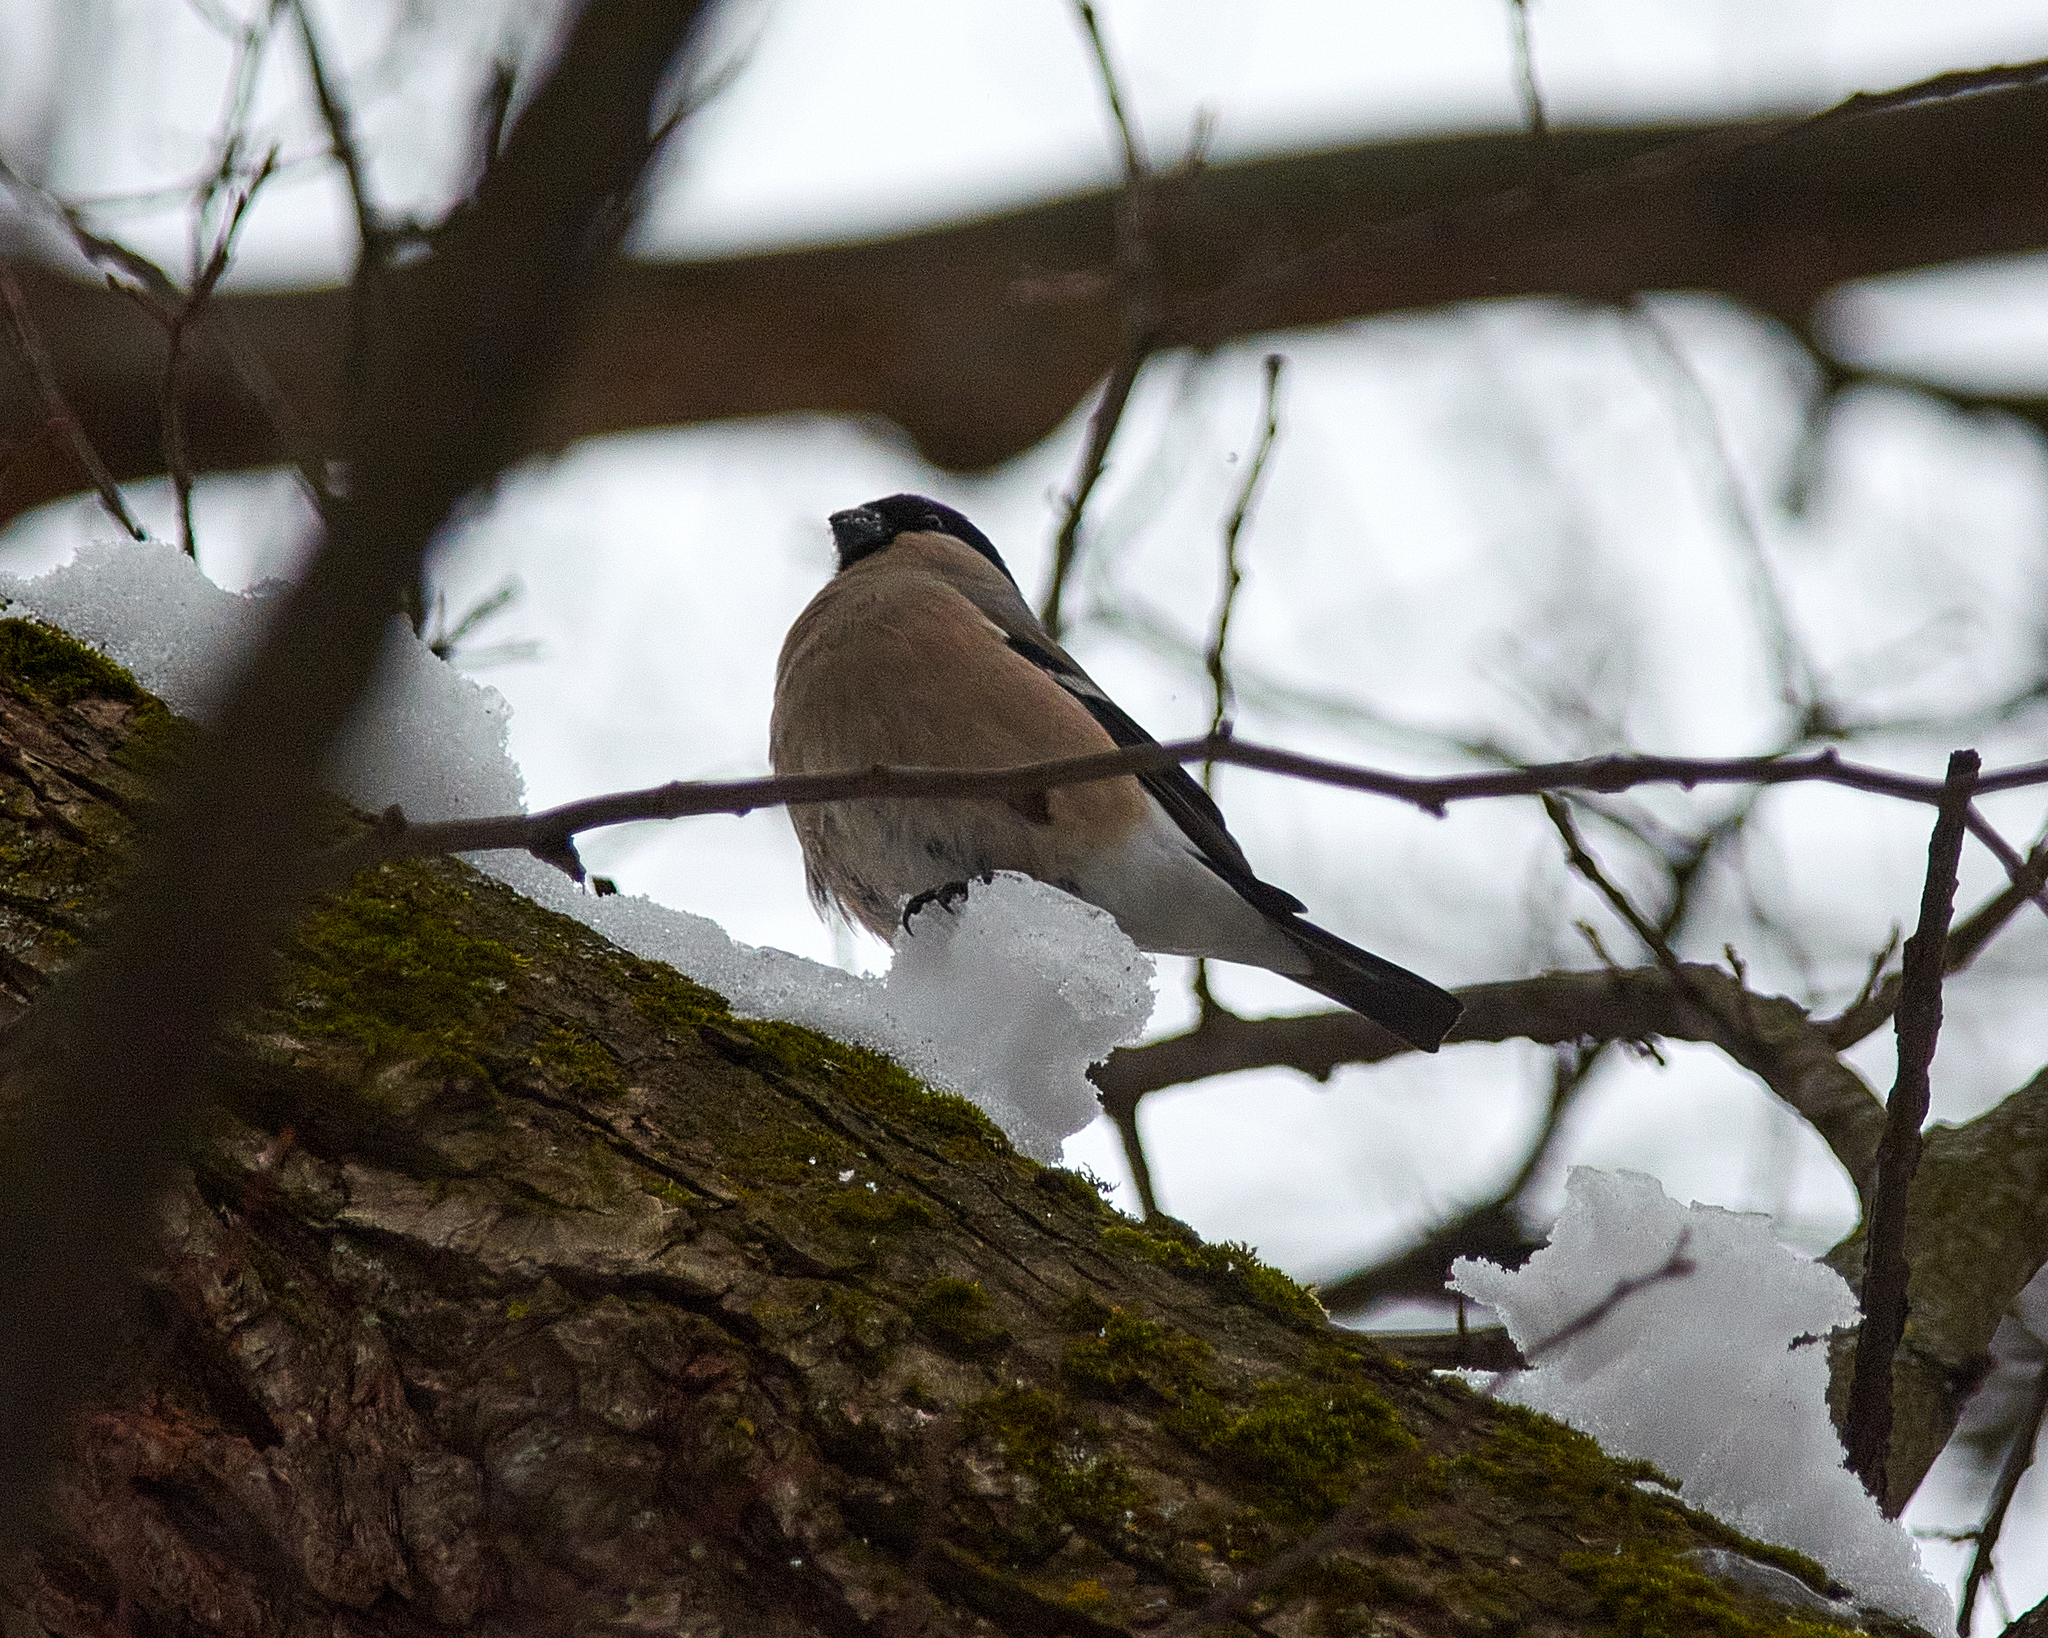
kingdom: Animalia
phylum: Chordata
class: Aves
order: Passeriformes
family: Fringillidae
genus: Pyrrhula
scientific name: Pyrrhula pyrrhula
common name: Eurasian bullfinch
